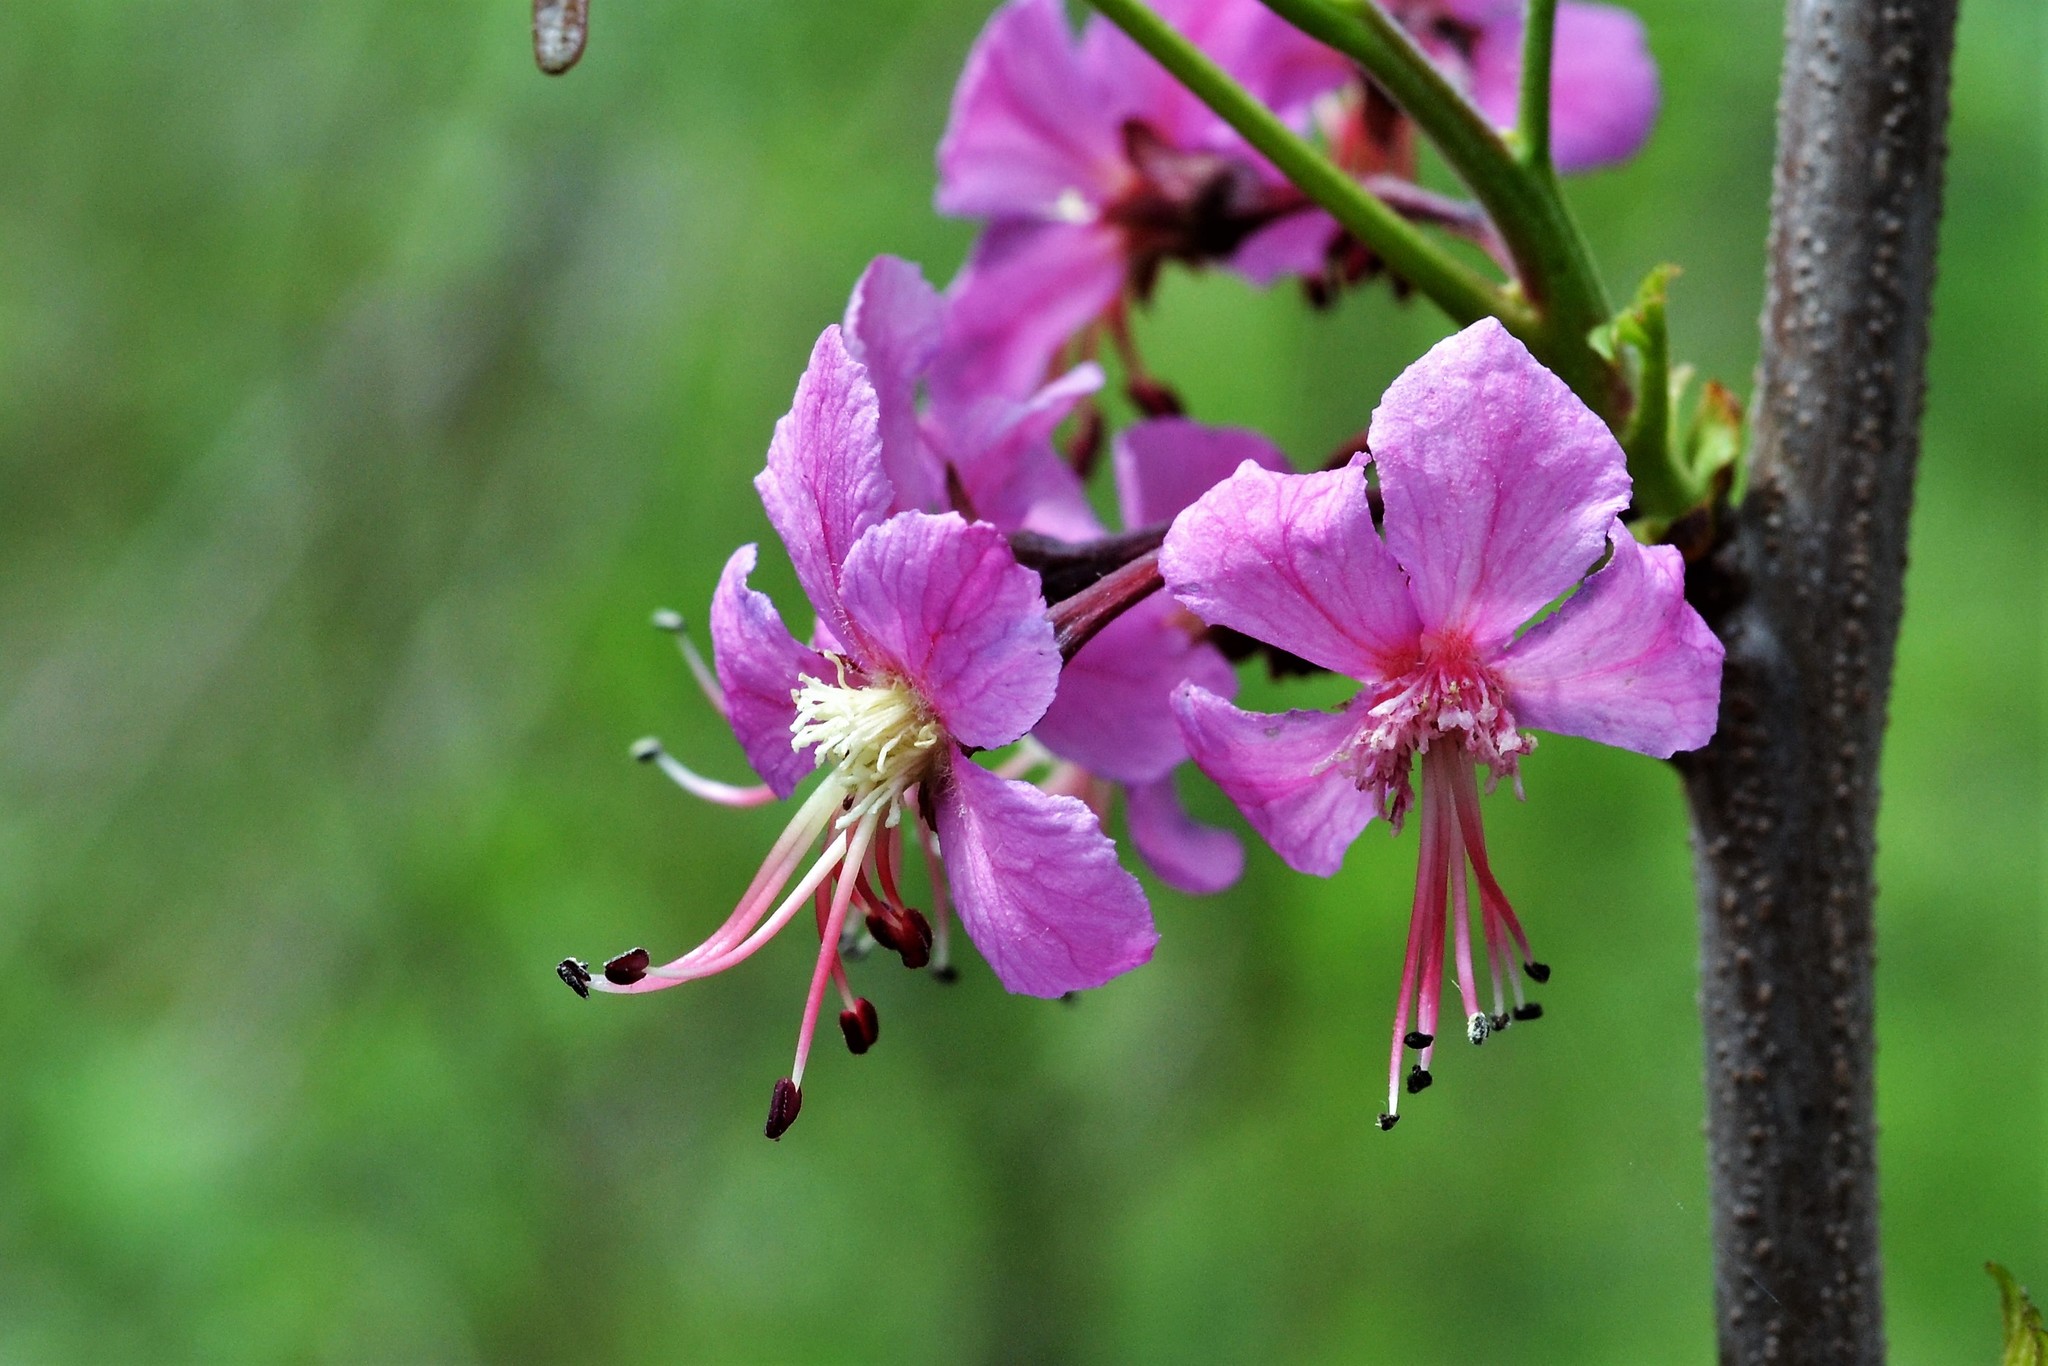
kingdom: Plantae
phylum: Tracheophyta
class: Magnoliopsida
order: Sapindales
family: Sapindaceae
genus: Ungnadia
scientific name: Ungnadia speciosa
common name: Texas-buckeye
